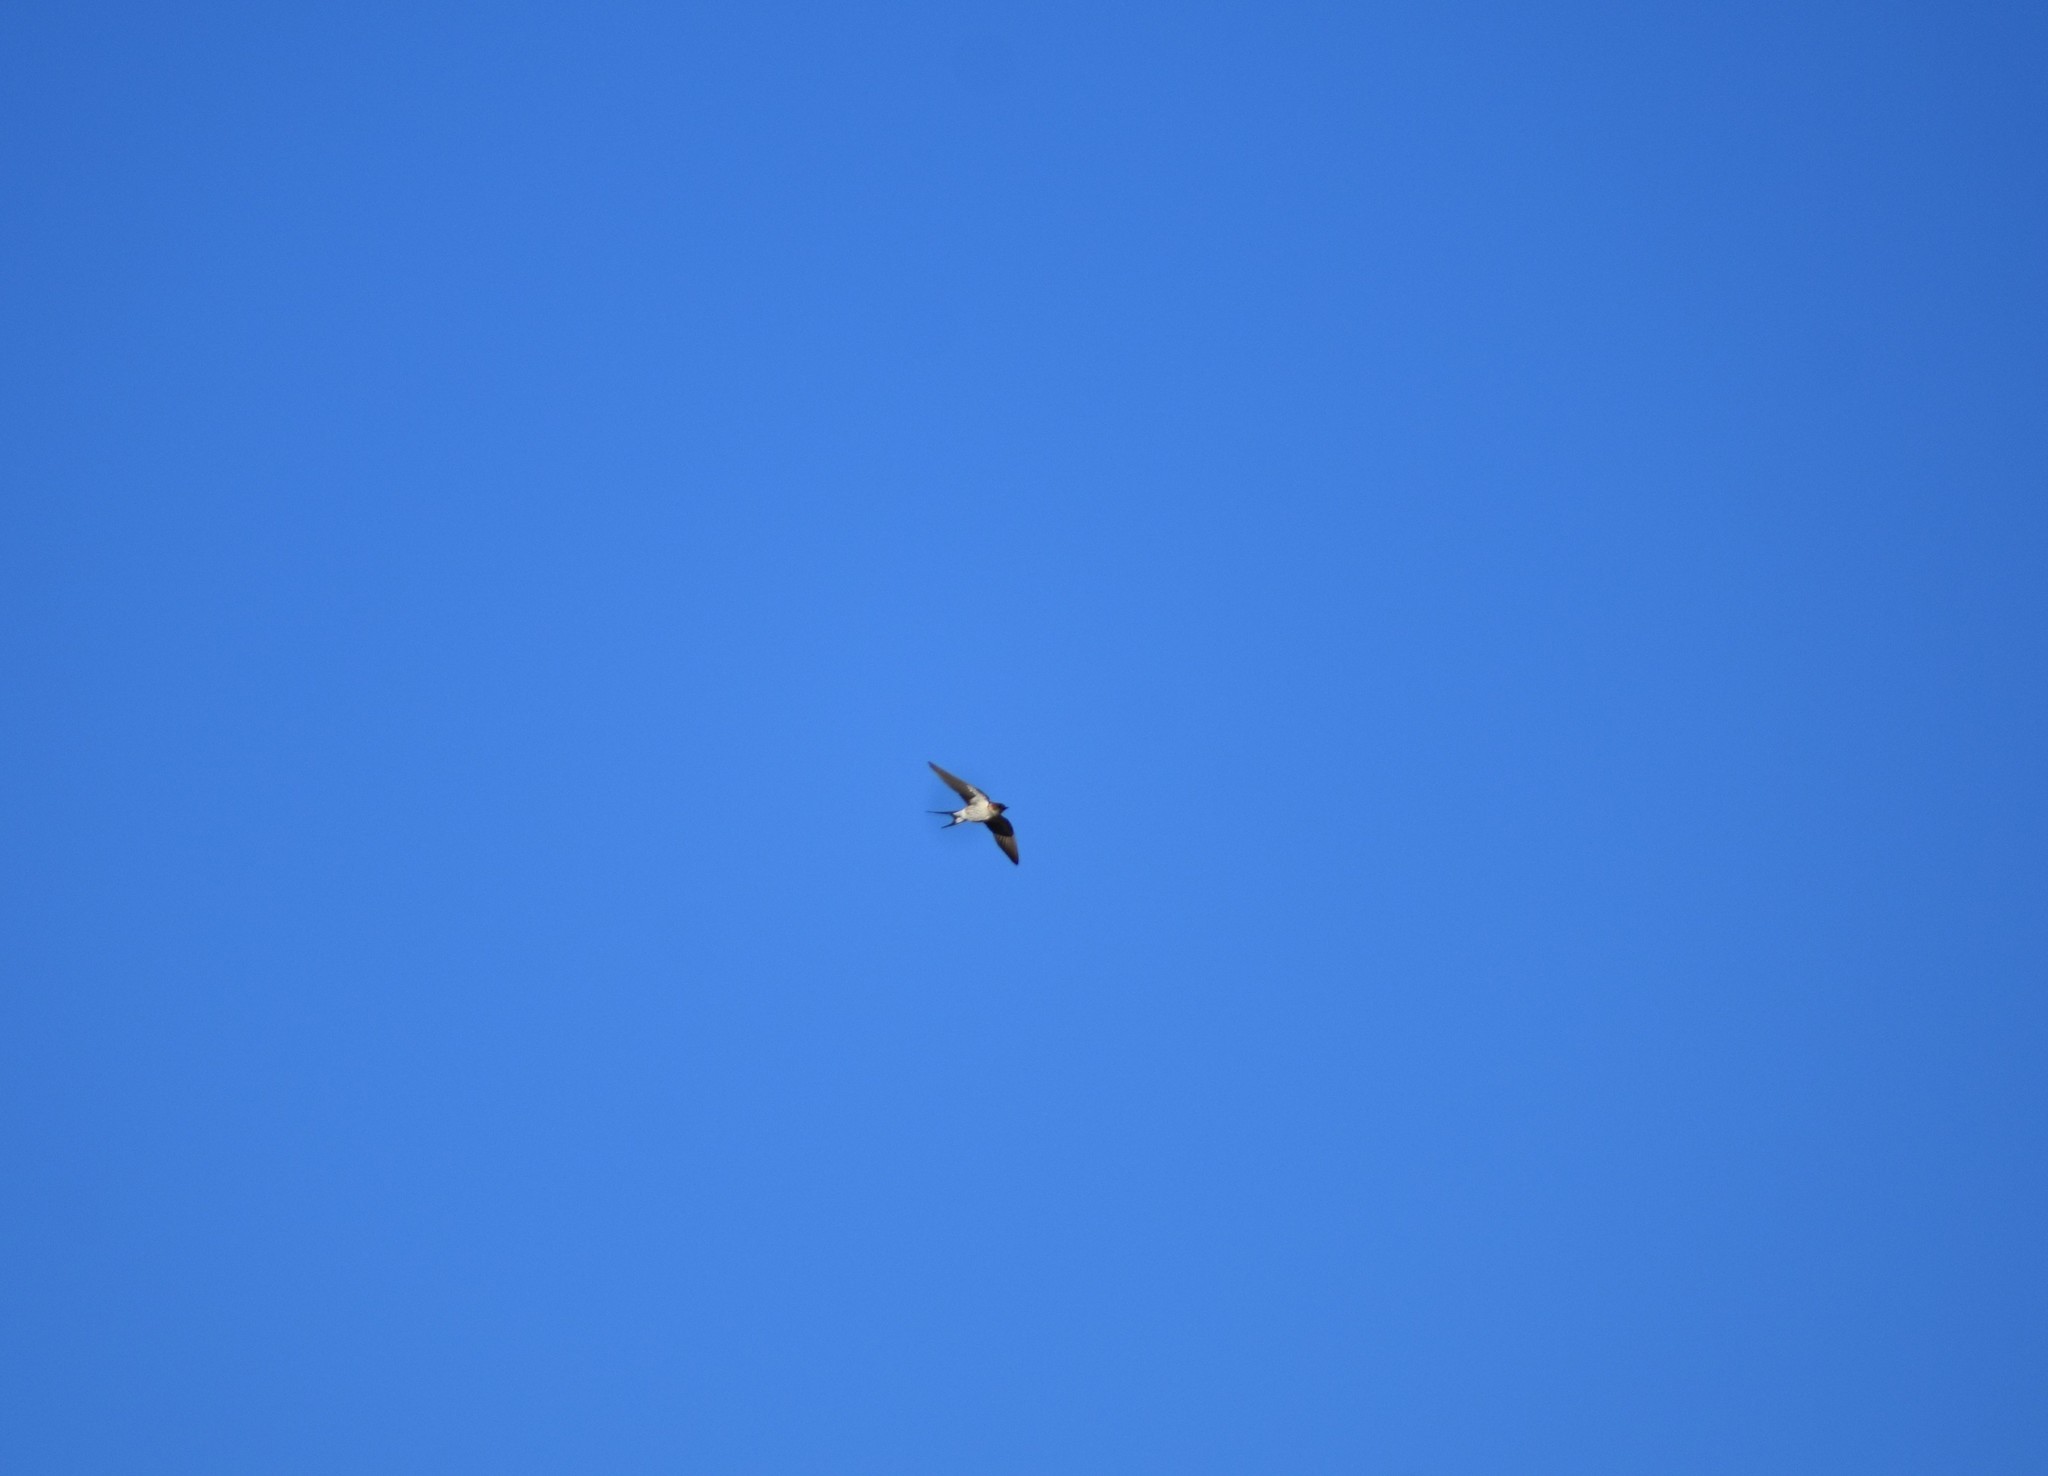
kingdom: Animalia
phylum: Chordata
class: Aves
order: Passeriformes
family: Hirundinidae
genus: Cecropis
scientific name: Cecropis cucullata
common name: Greater striped-swallow
